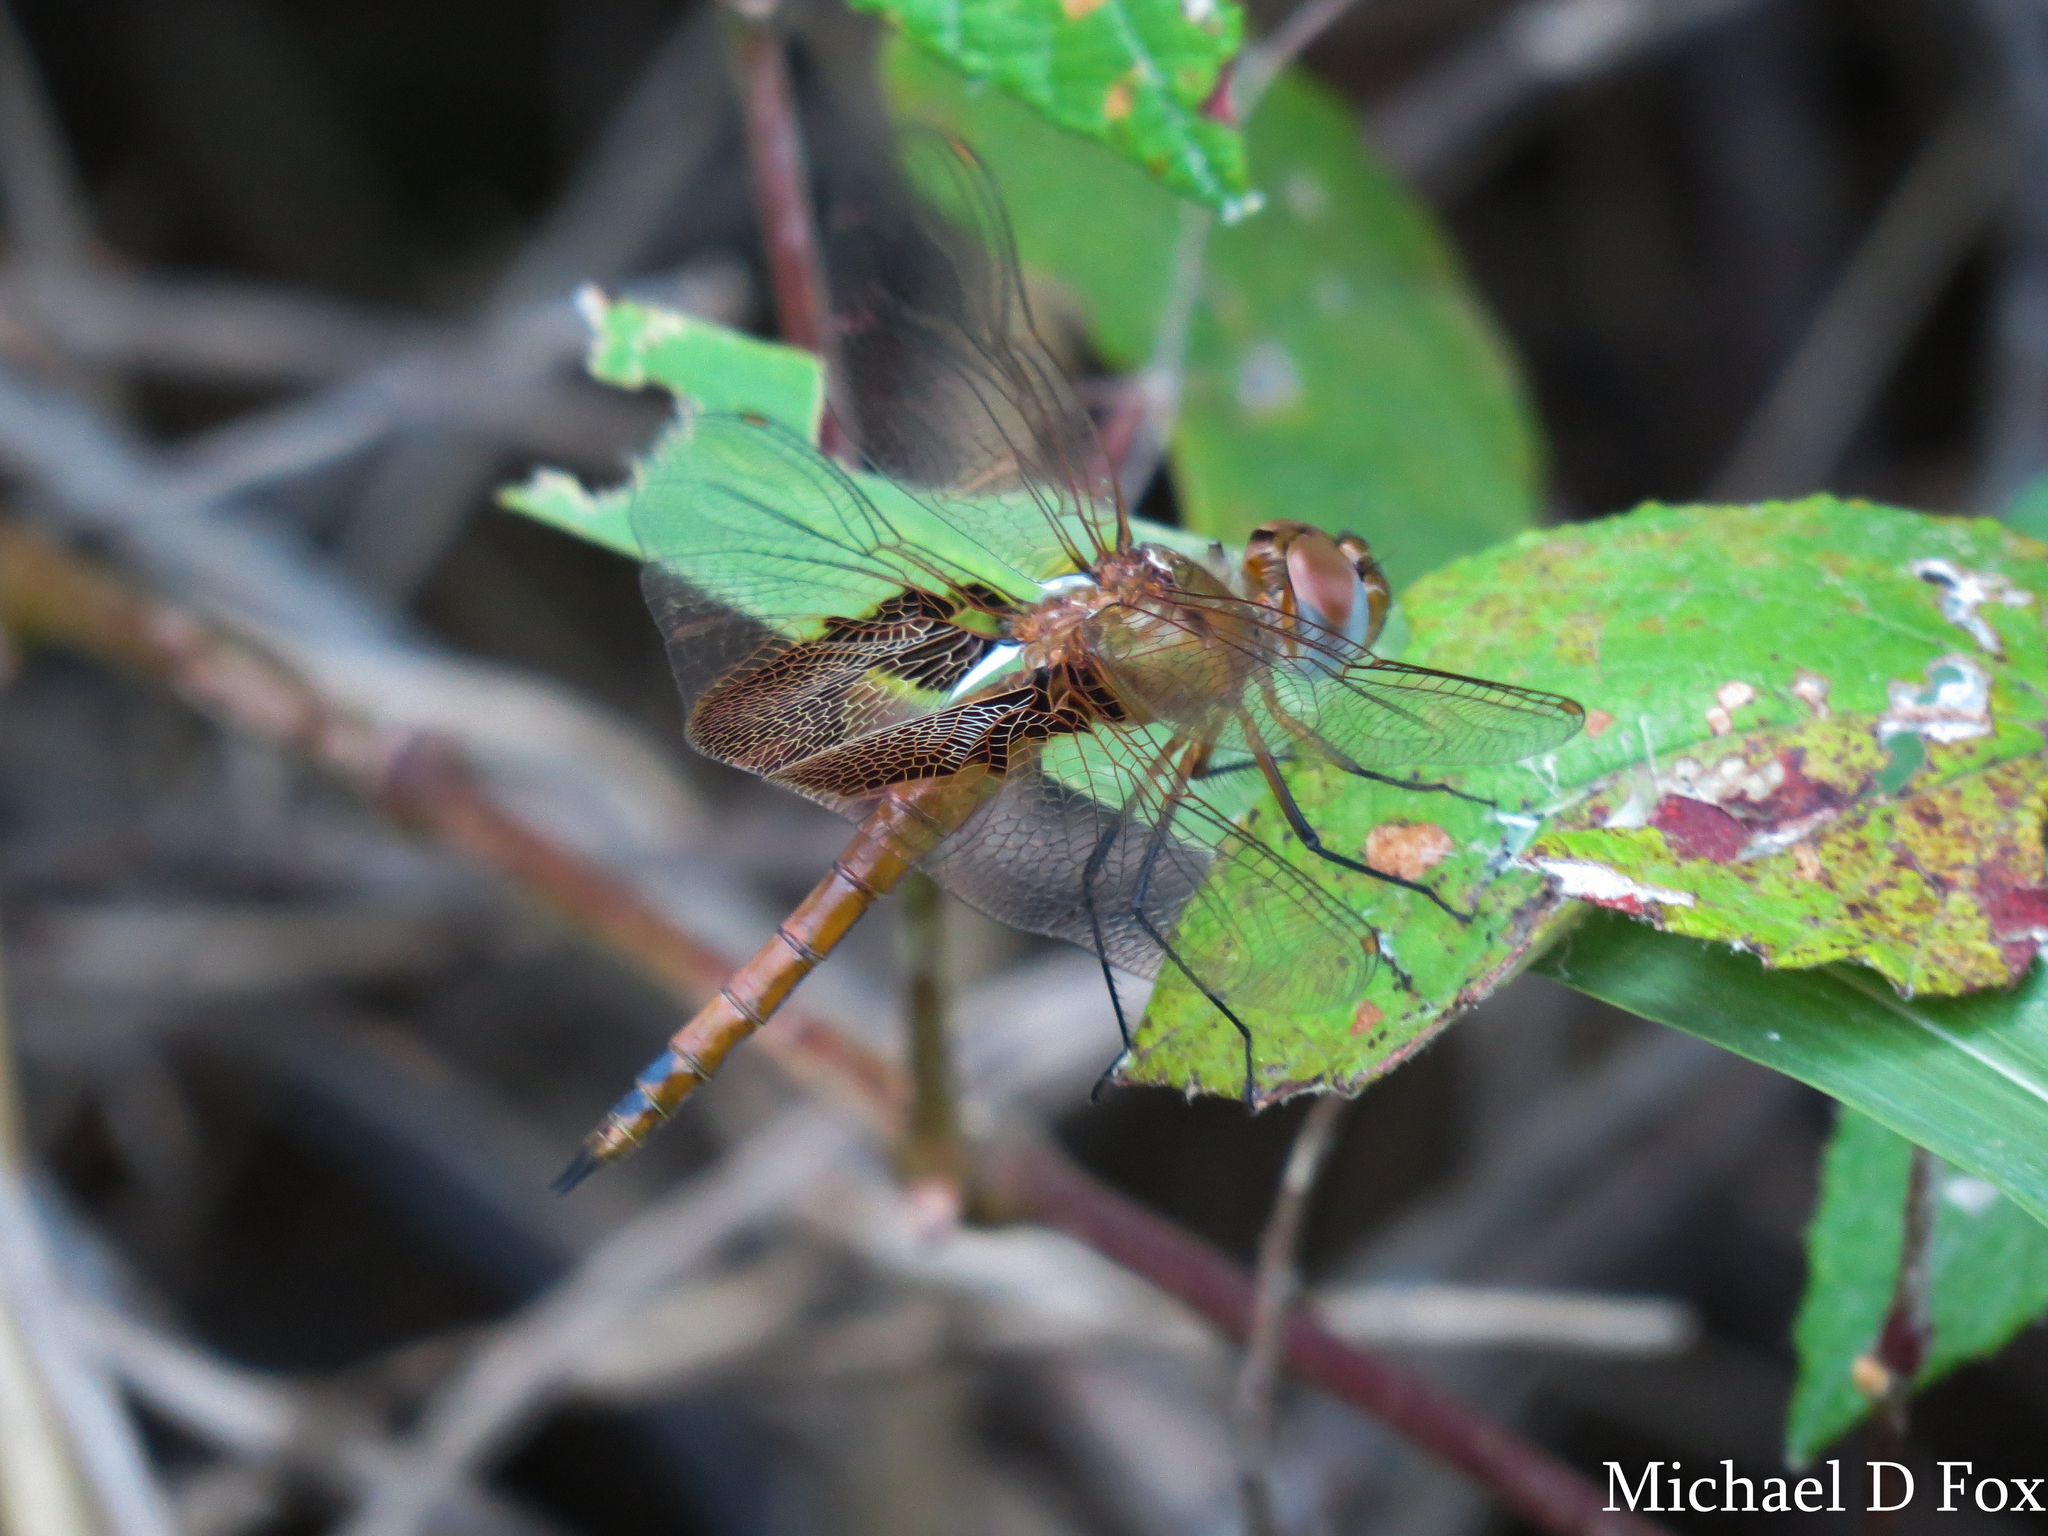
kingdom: Animalia
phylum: Arthropoda
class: Insecta
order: Odonata
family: Libellulidae
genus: Tramea
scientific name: Tramea onusta
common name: Red saddlebags
